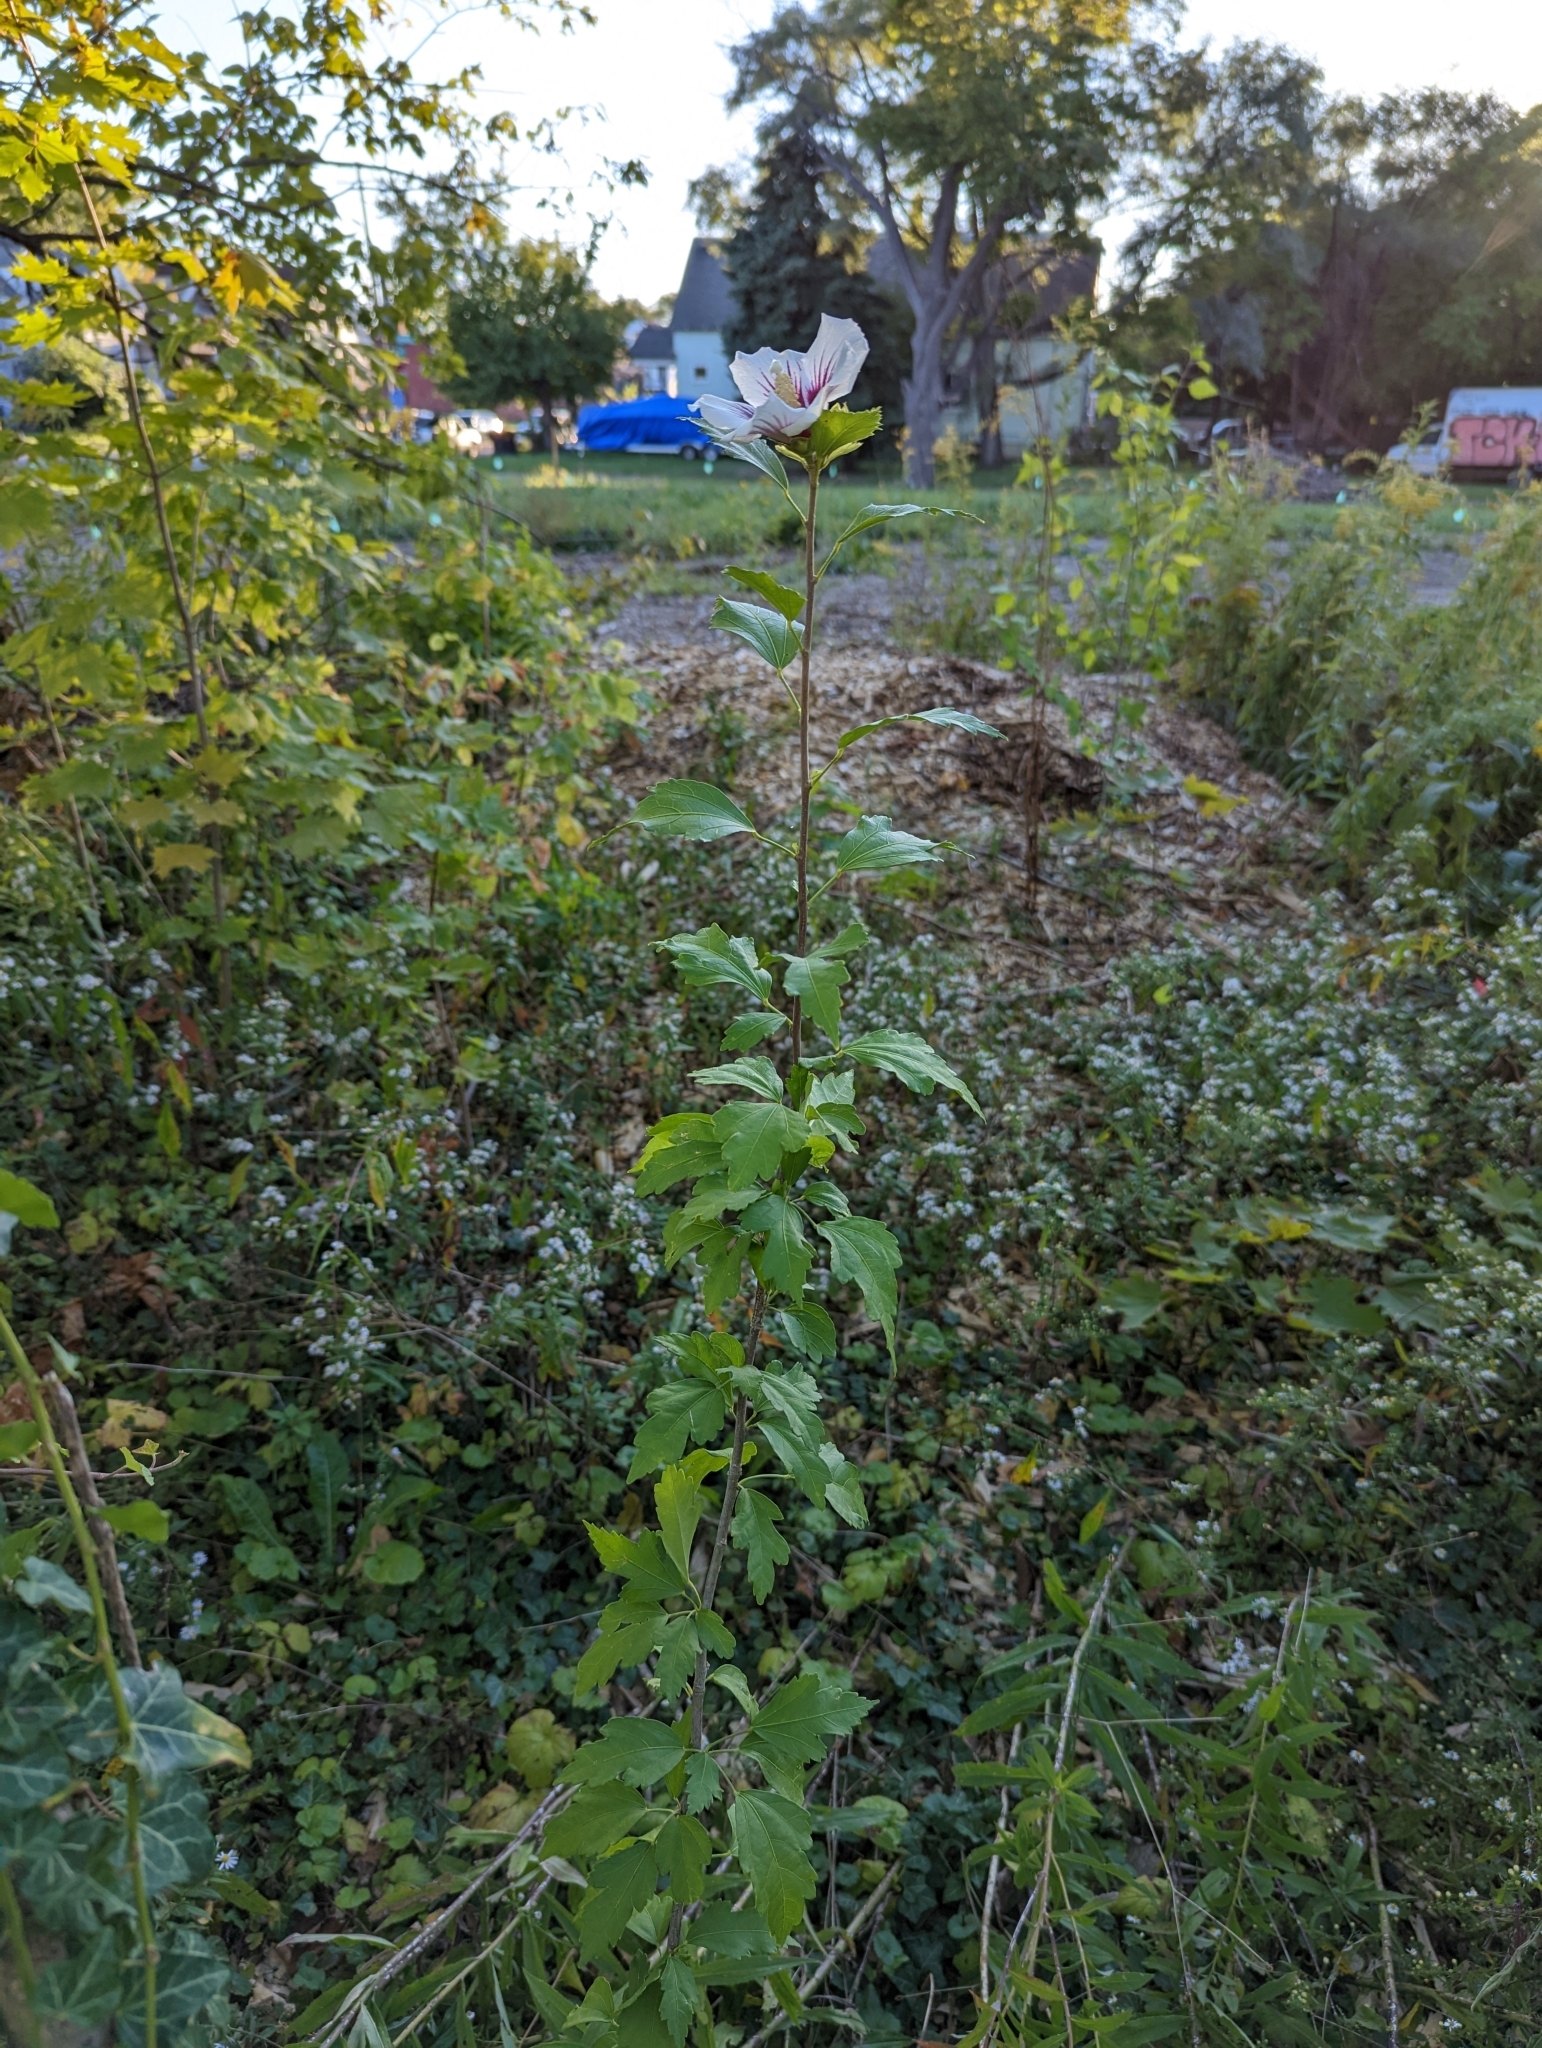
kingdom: Plantae
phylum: Tracheophyta
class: Magnoliopsida
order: Malvales
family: Malvaceae
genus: Hibiscus
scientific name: Hibiscus syriacus
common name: Syrian ketmia
